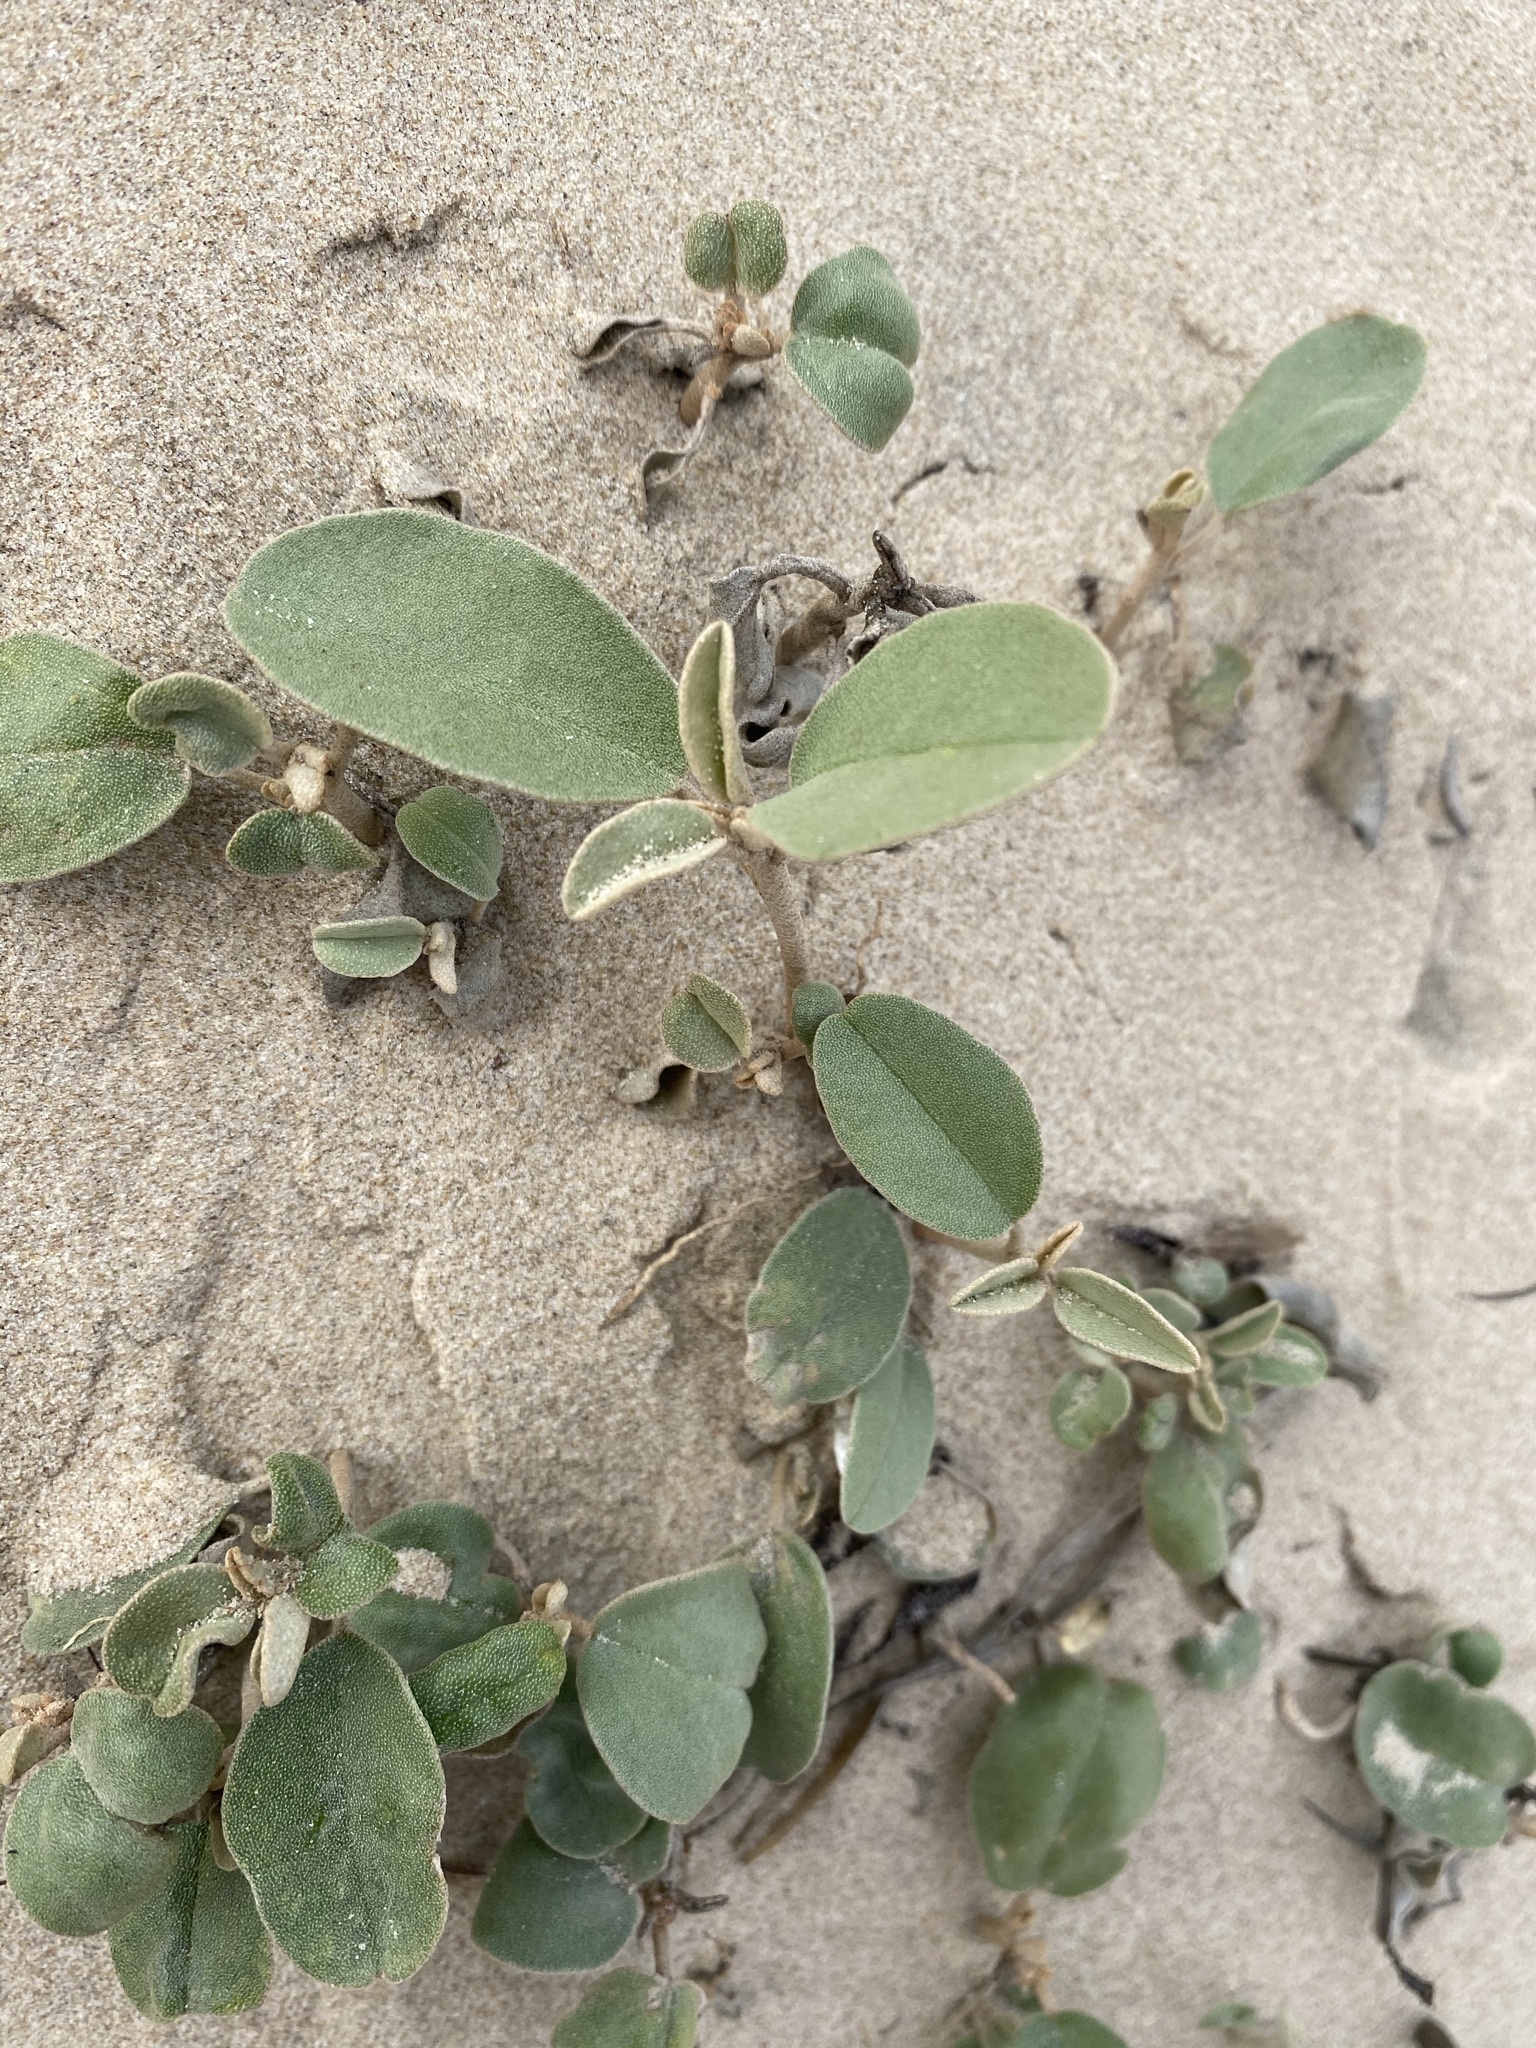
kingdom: Plantae
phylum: Tracheophyta
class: Magnoliopsida
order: Malpighiales
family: Euphorbiaceae
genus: Croton
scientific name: Croton punctatus
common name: Beach-tea
